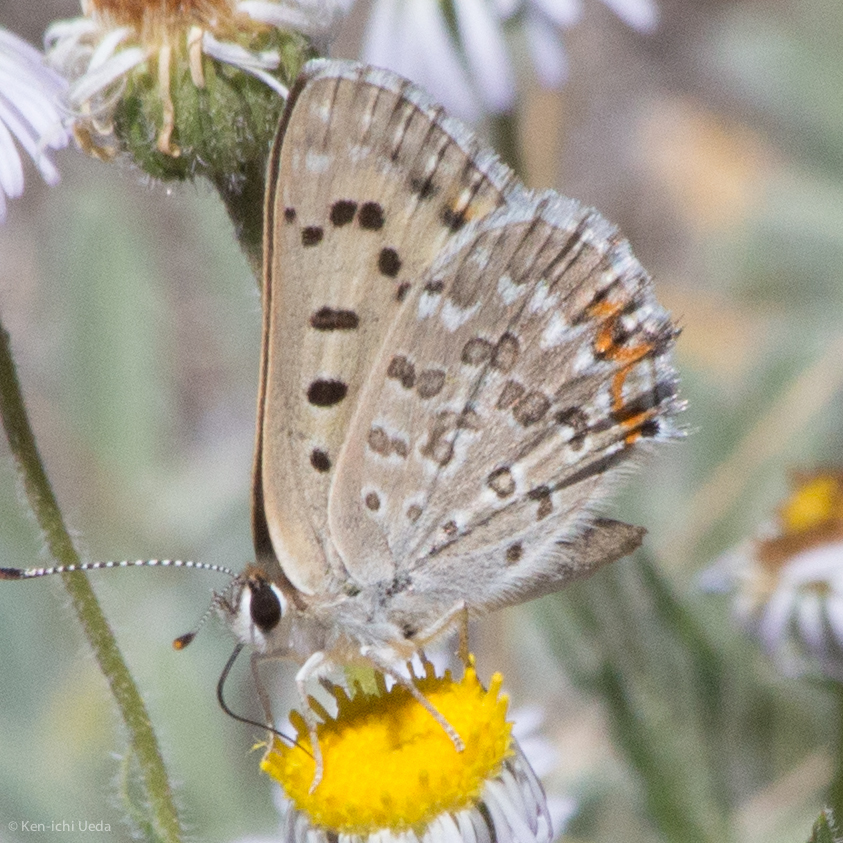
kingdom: Animalia
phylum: Arthropoda
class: Insecta
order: Lepidoptera
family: Lycaenidae
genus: Tharsalea
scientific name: Tharsalea editha
